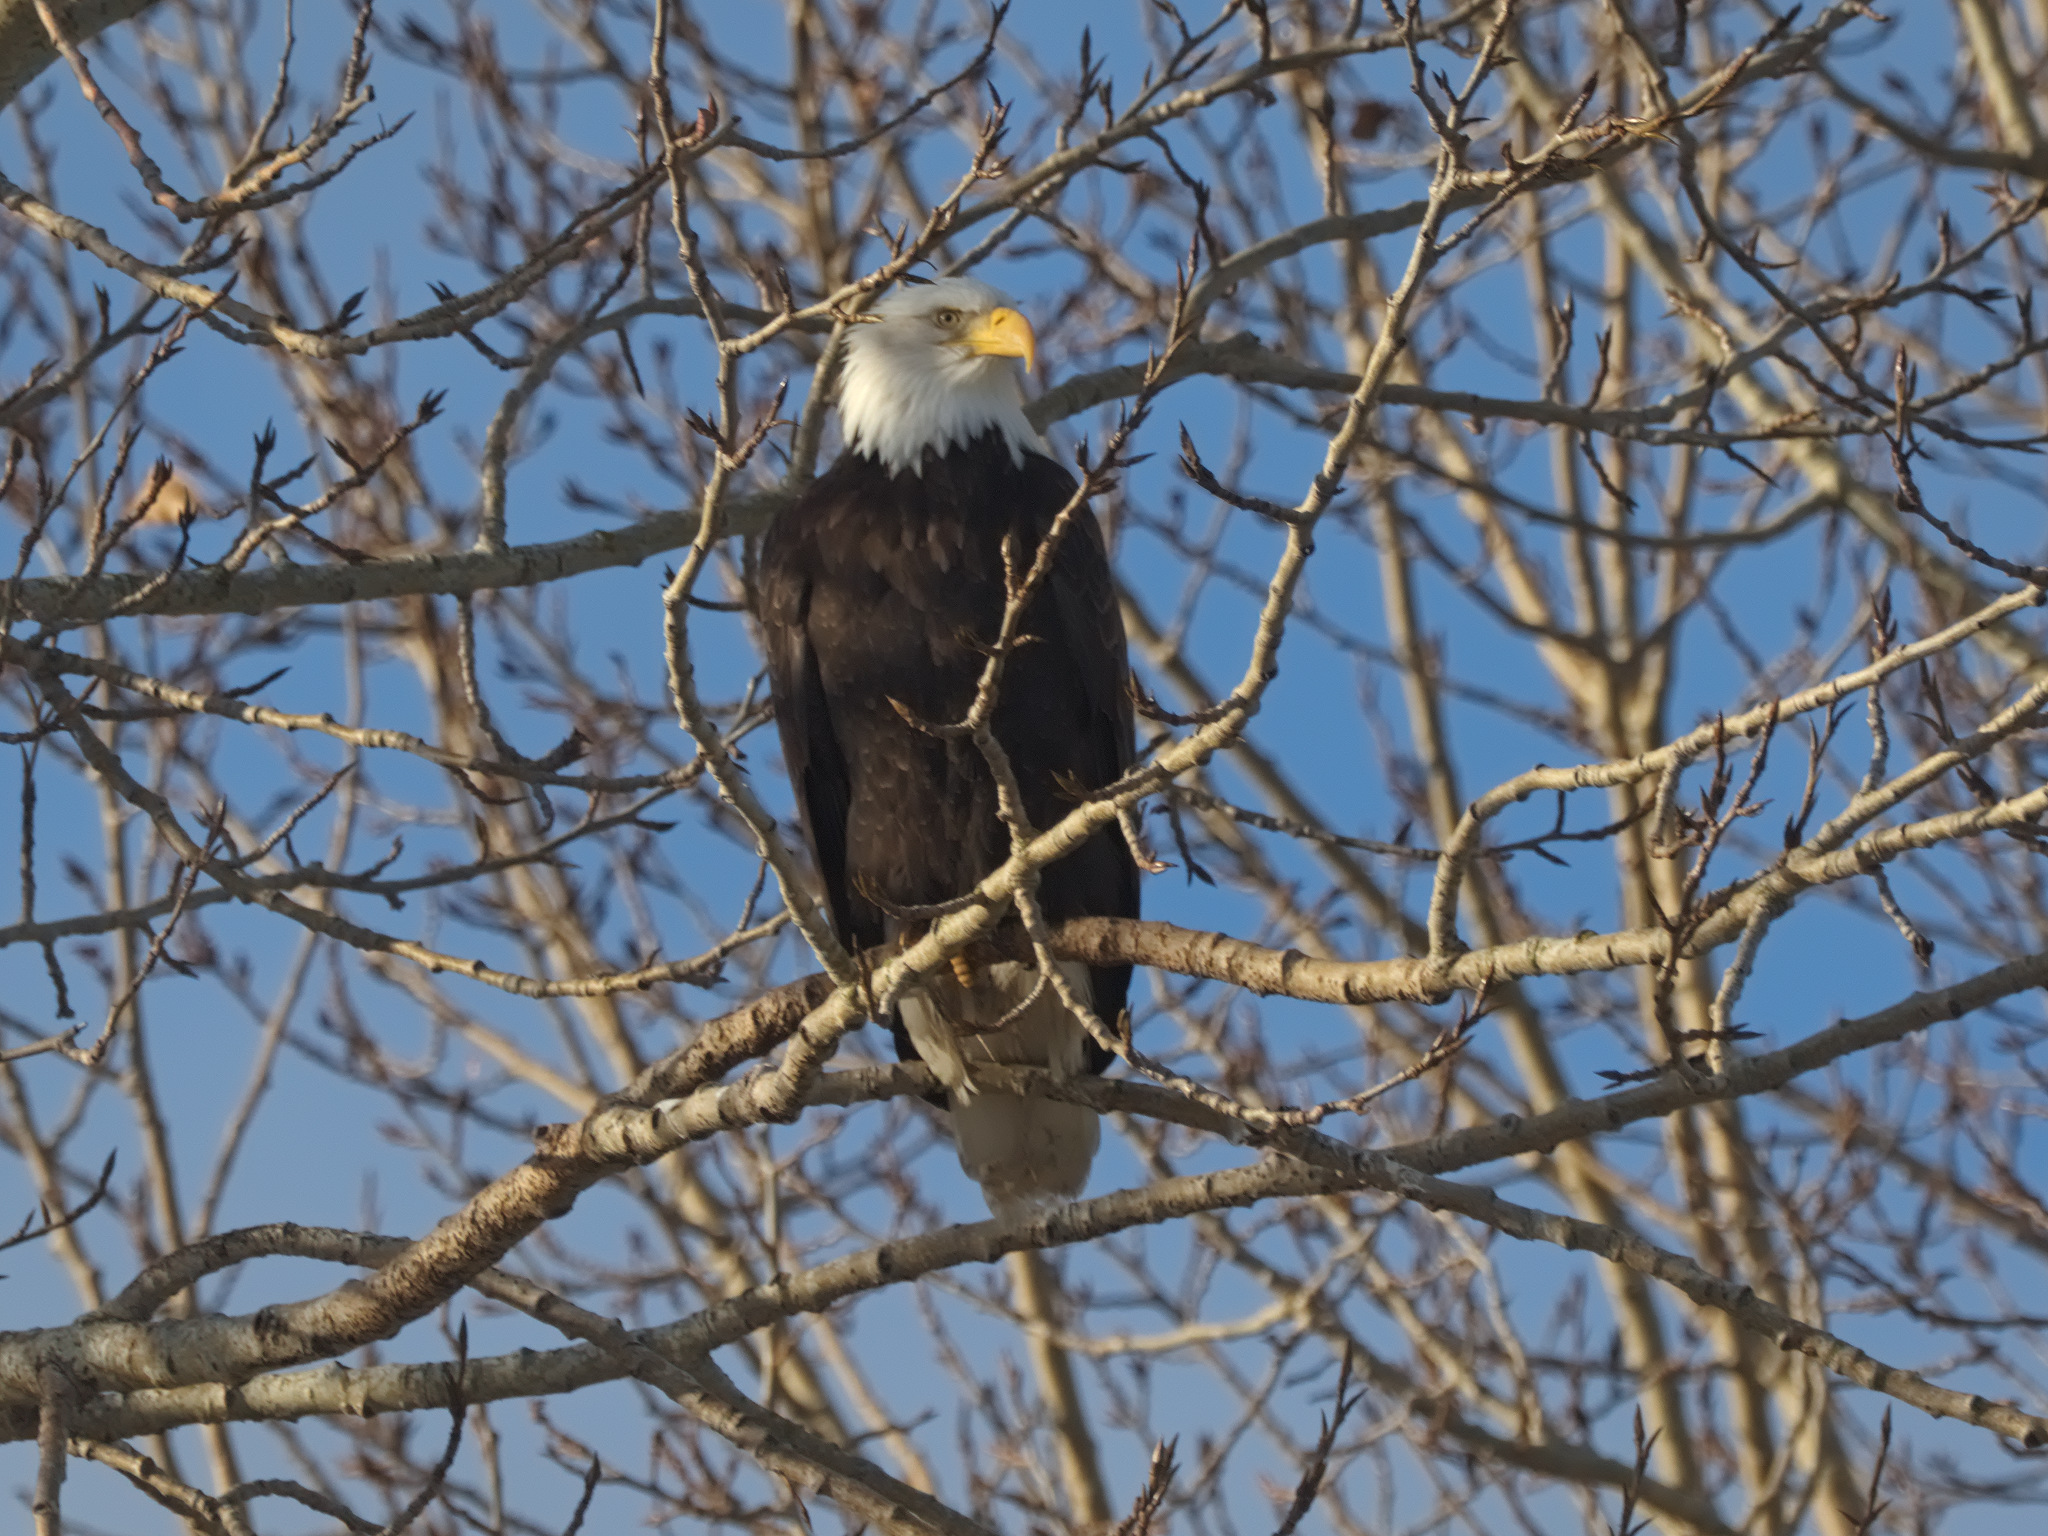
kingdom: Animalia
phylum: Chordata
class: Aves
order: Accipitriformes
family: Accipitridae
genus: Haliaeetus
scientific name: Haliaeetus leucocephalus
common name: Bald eagle
